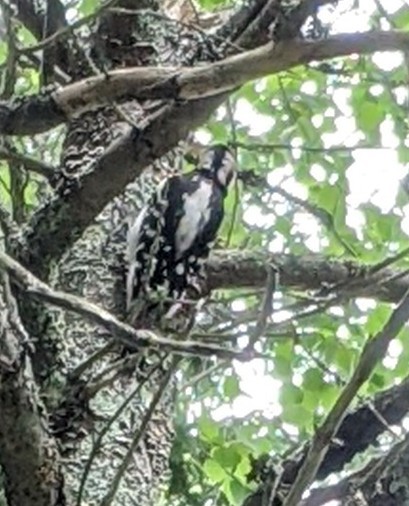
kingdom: Animalia
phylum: Chordata
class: Aves
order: Piciformes
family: Picidae
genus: Leuconotopicus
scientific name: Leuconotopicus villosus
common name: Hairy woodpecker
